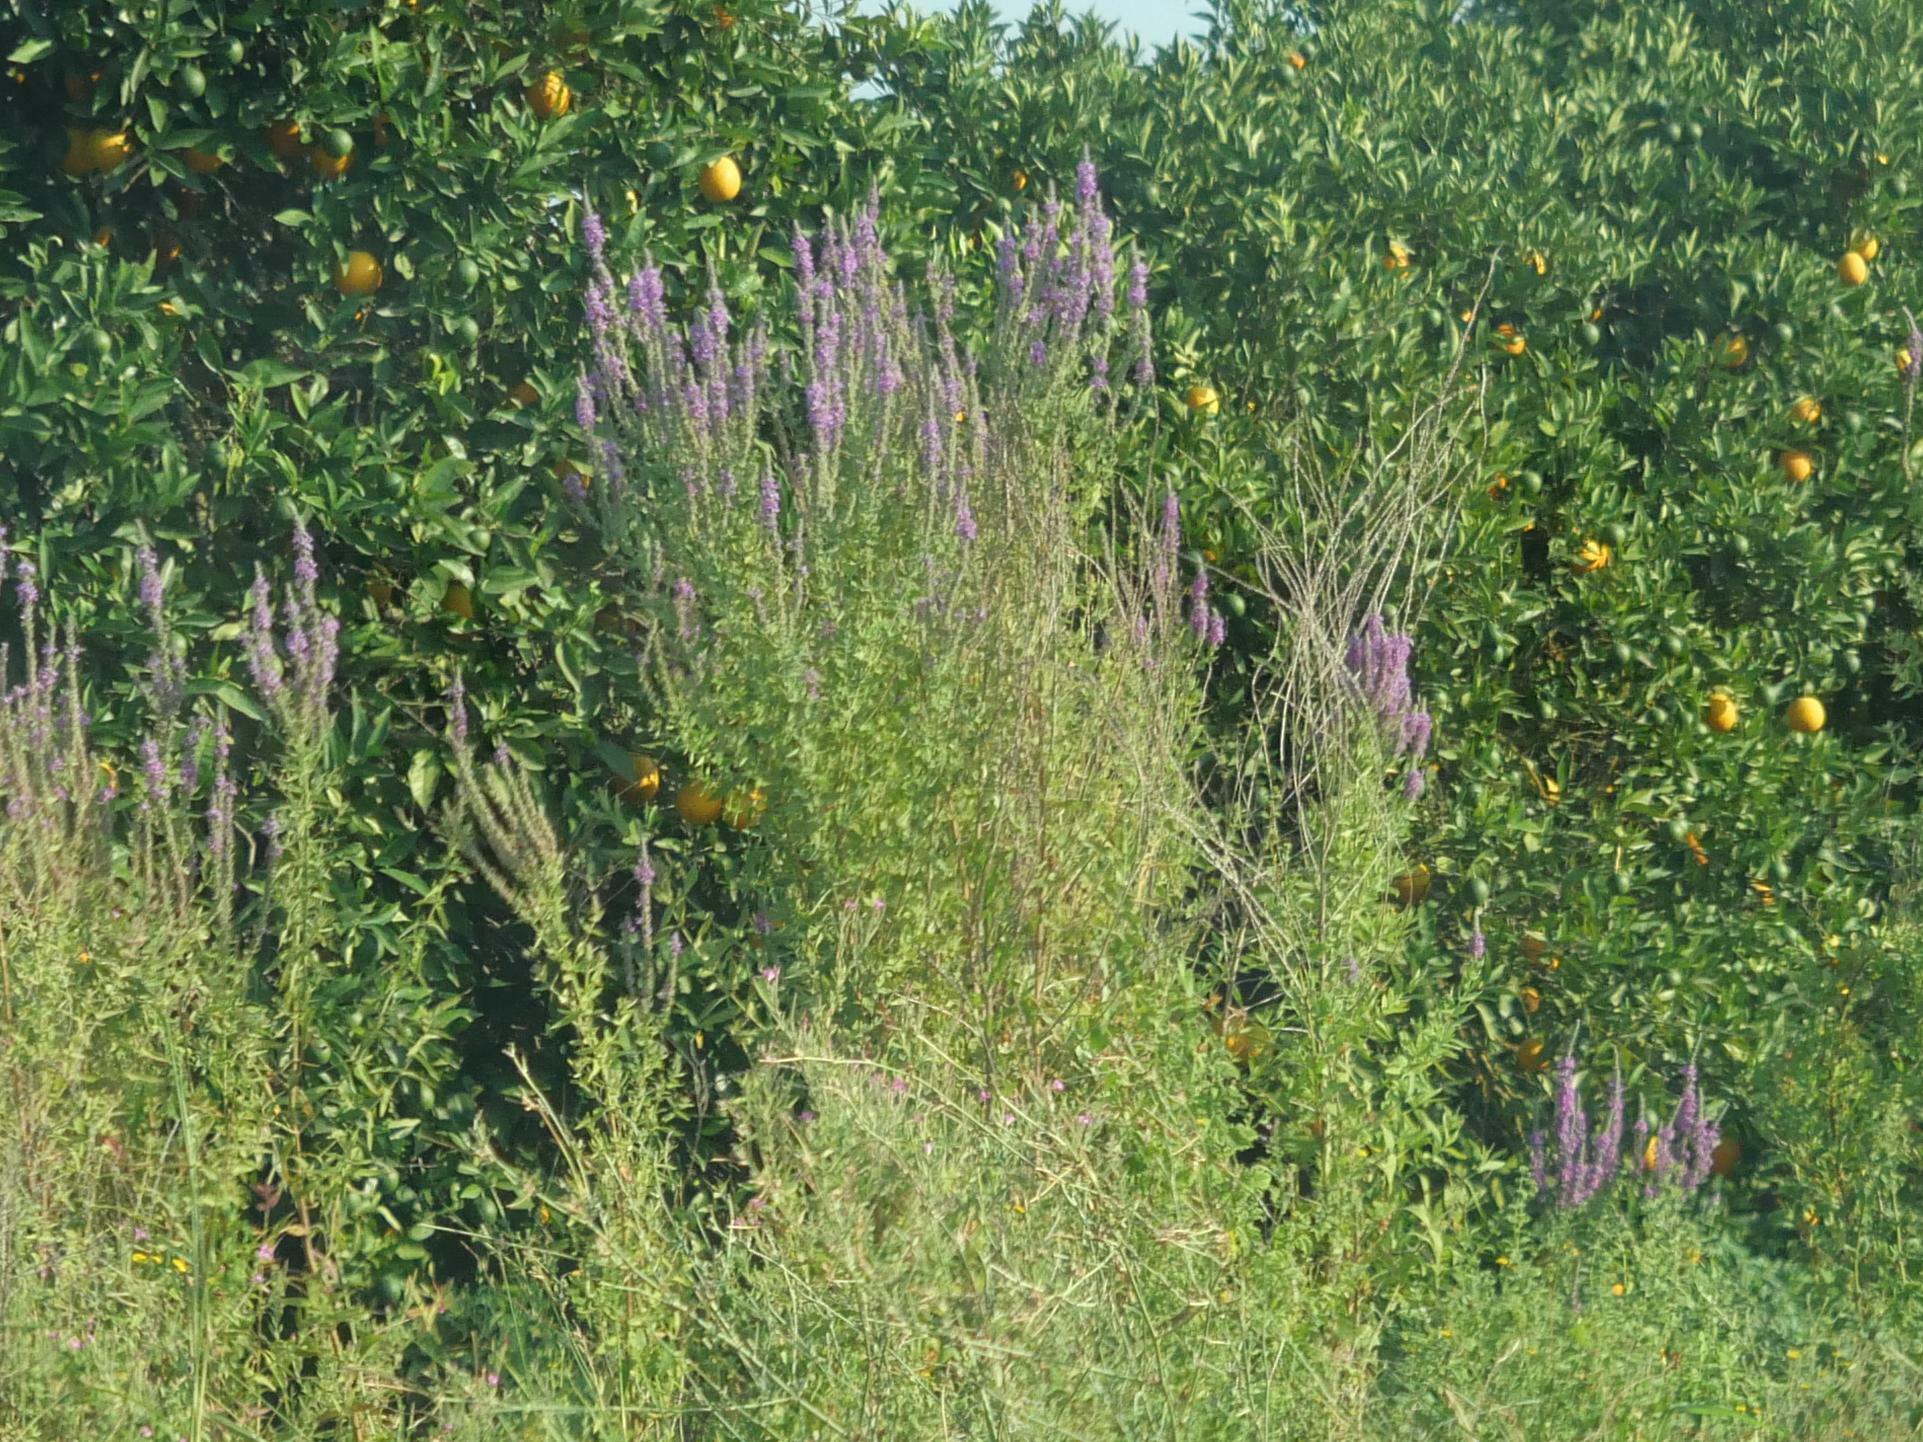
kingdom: Plantae
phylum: Tracheophyta
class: Magnoliopsida
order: Myrtales
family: Lythraceae
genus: Lythrum
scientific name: Lythrum salicaria
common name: Purple loosestrife
